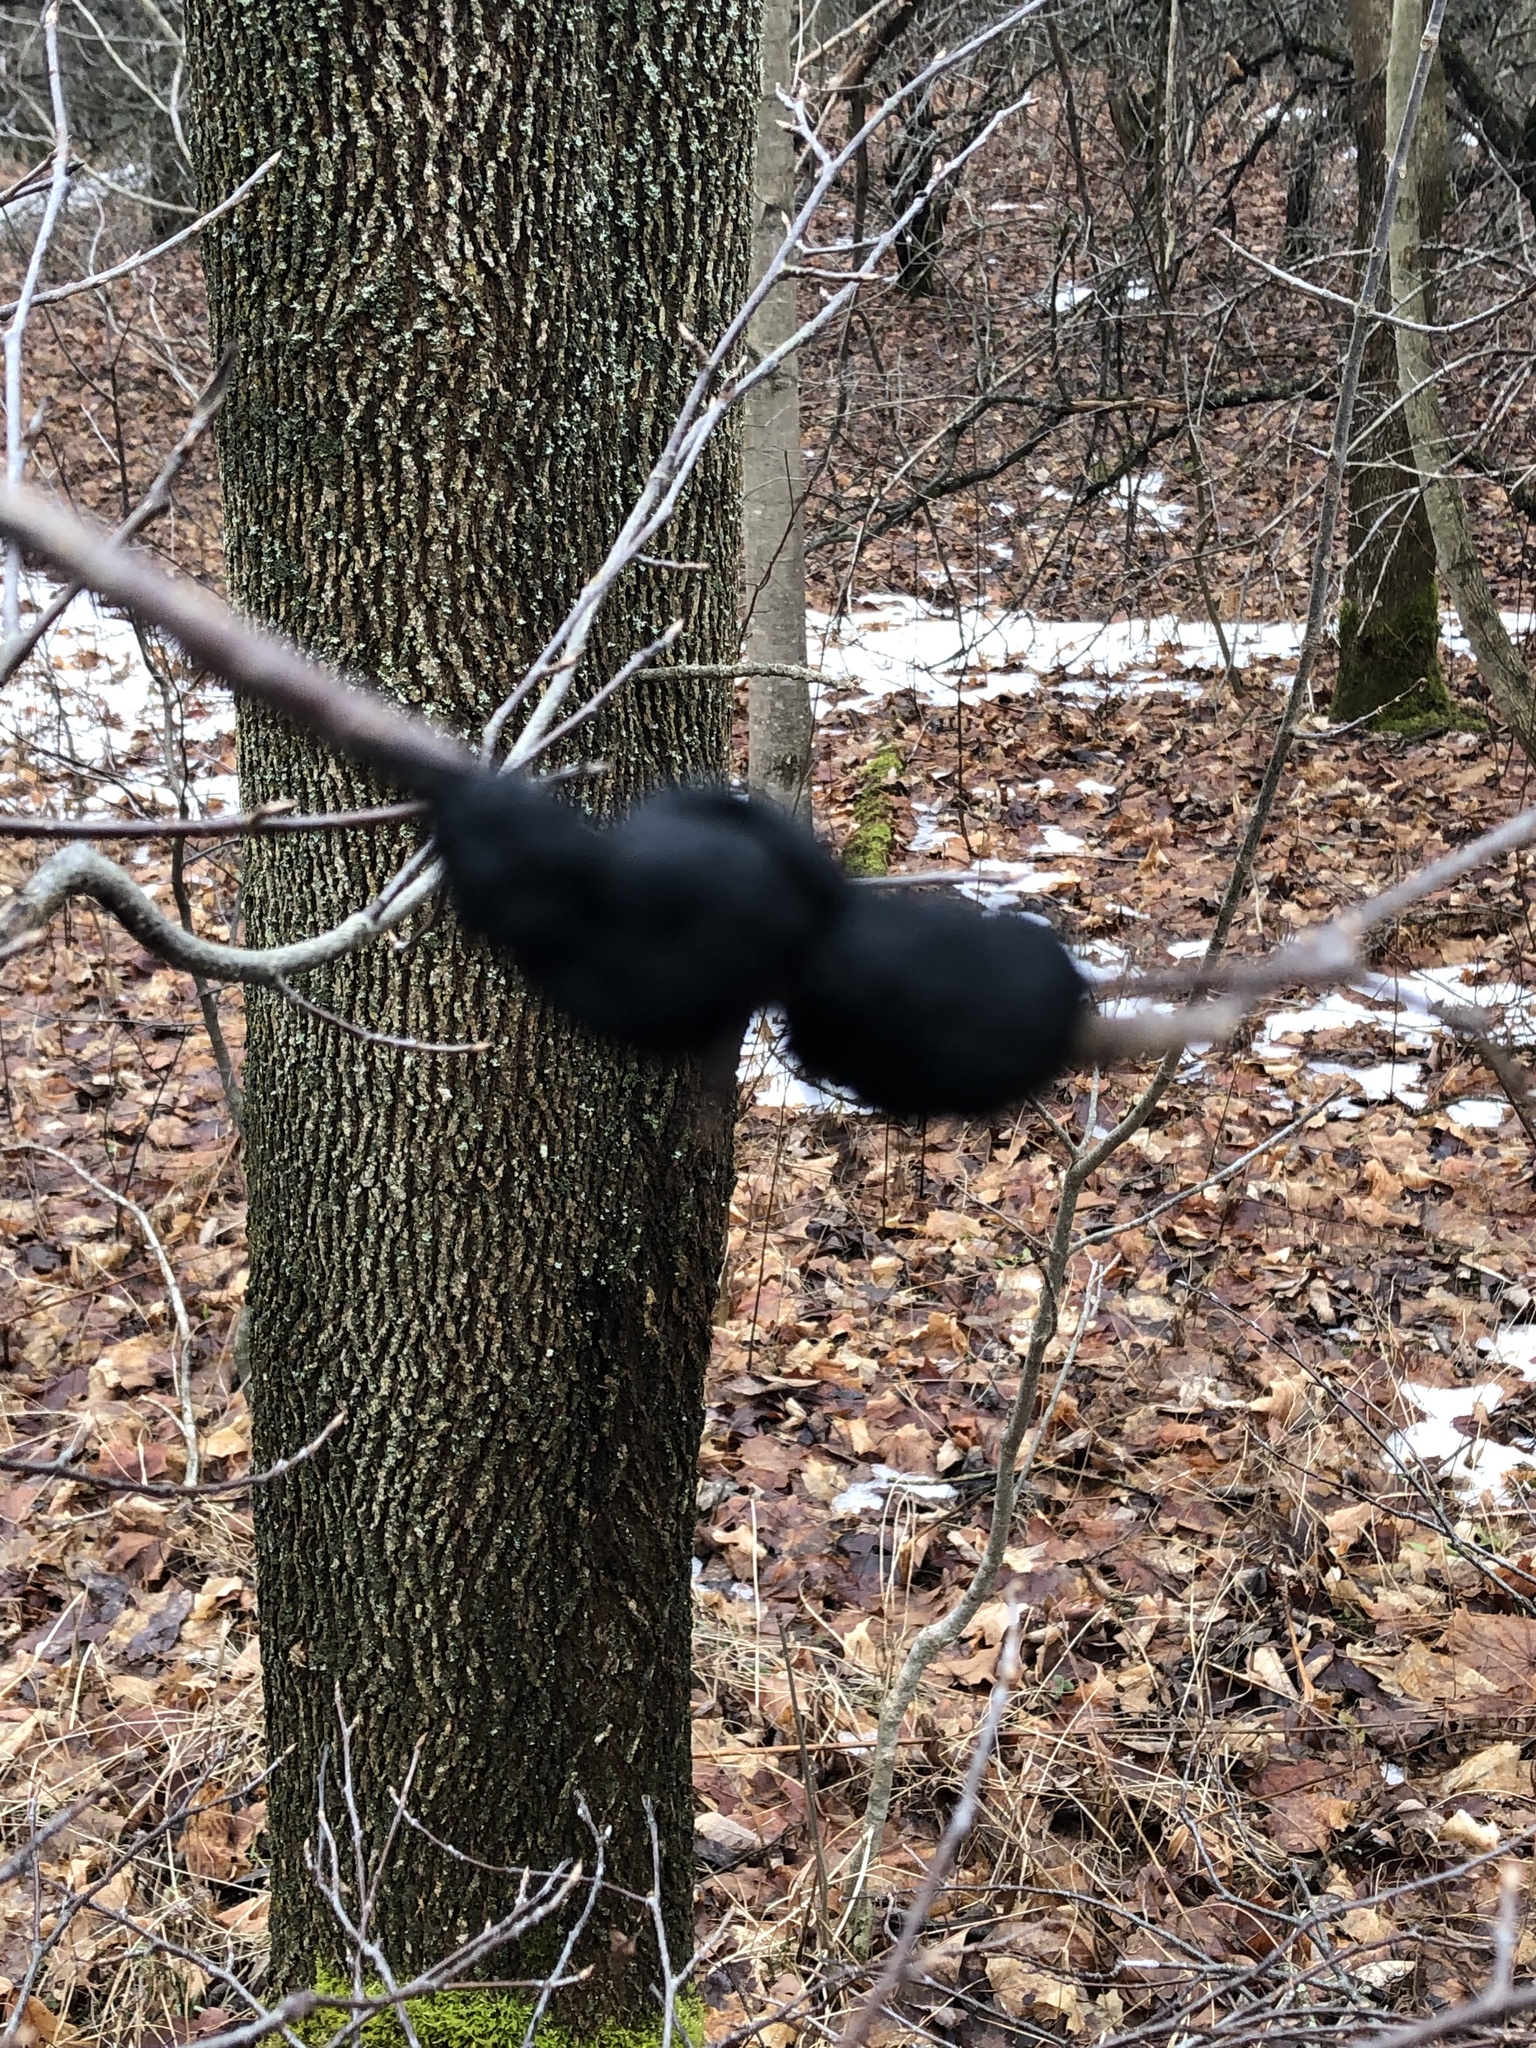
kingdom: Fungi
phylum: Ascomycota
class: Dothideomycetes
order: Venturiales
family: Venturiaceae
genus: Apiosporina
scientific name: Apiosporina morbosa
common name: Black knot
